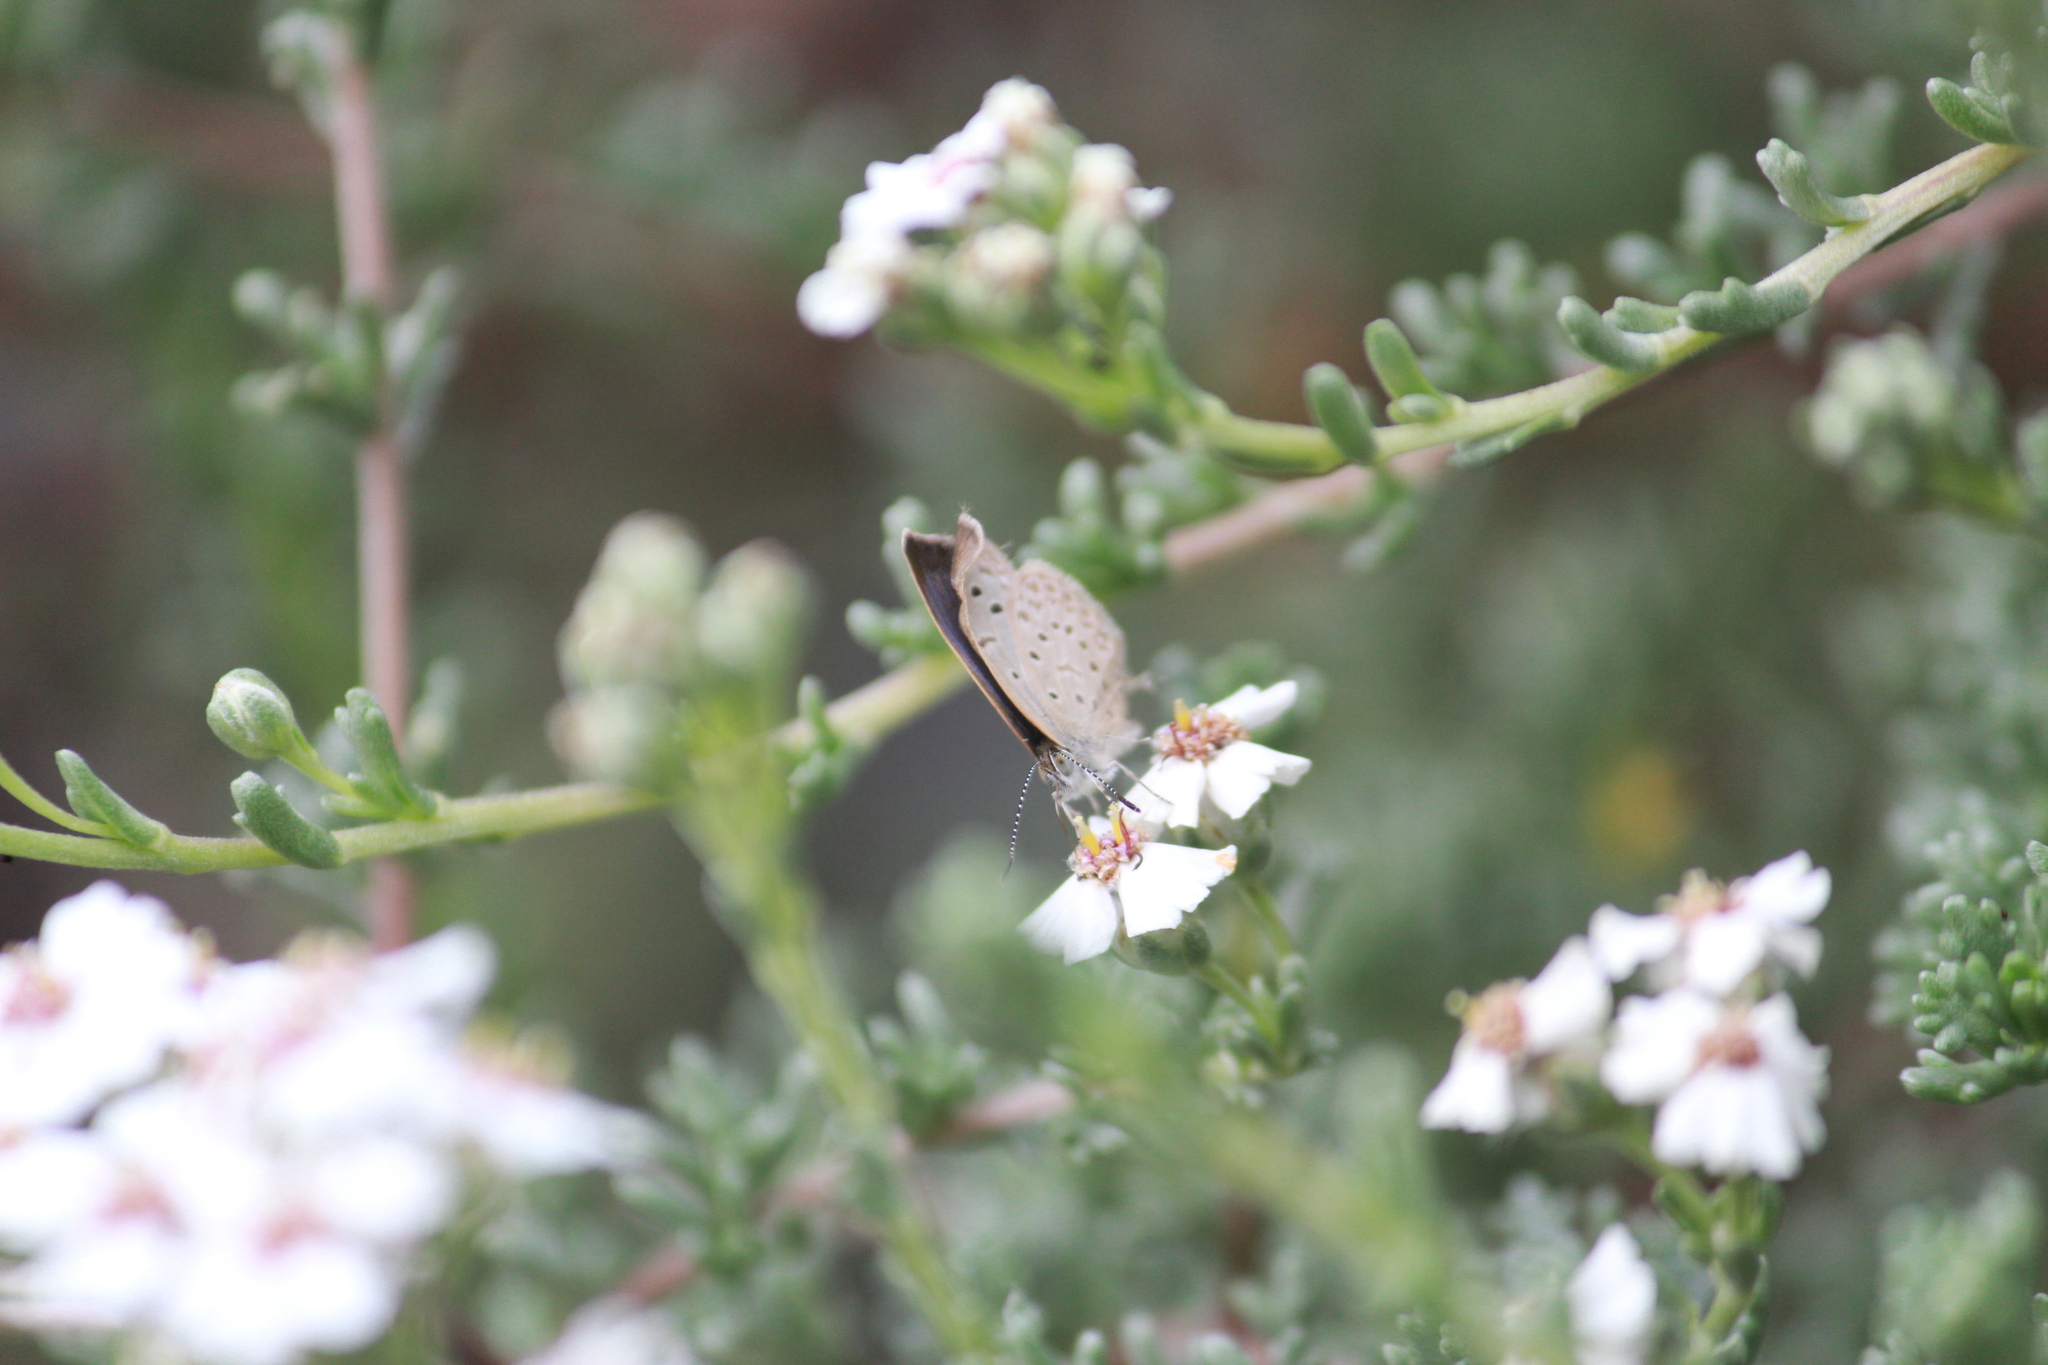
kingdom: Animalia
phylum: Arthropoda
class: Insecta
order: Lepidoptera
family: Lycaenidae
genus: Zizeeria
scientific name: Zizeeria knysna
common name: African grass blue
